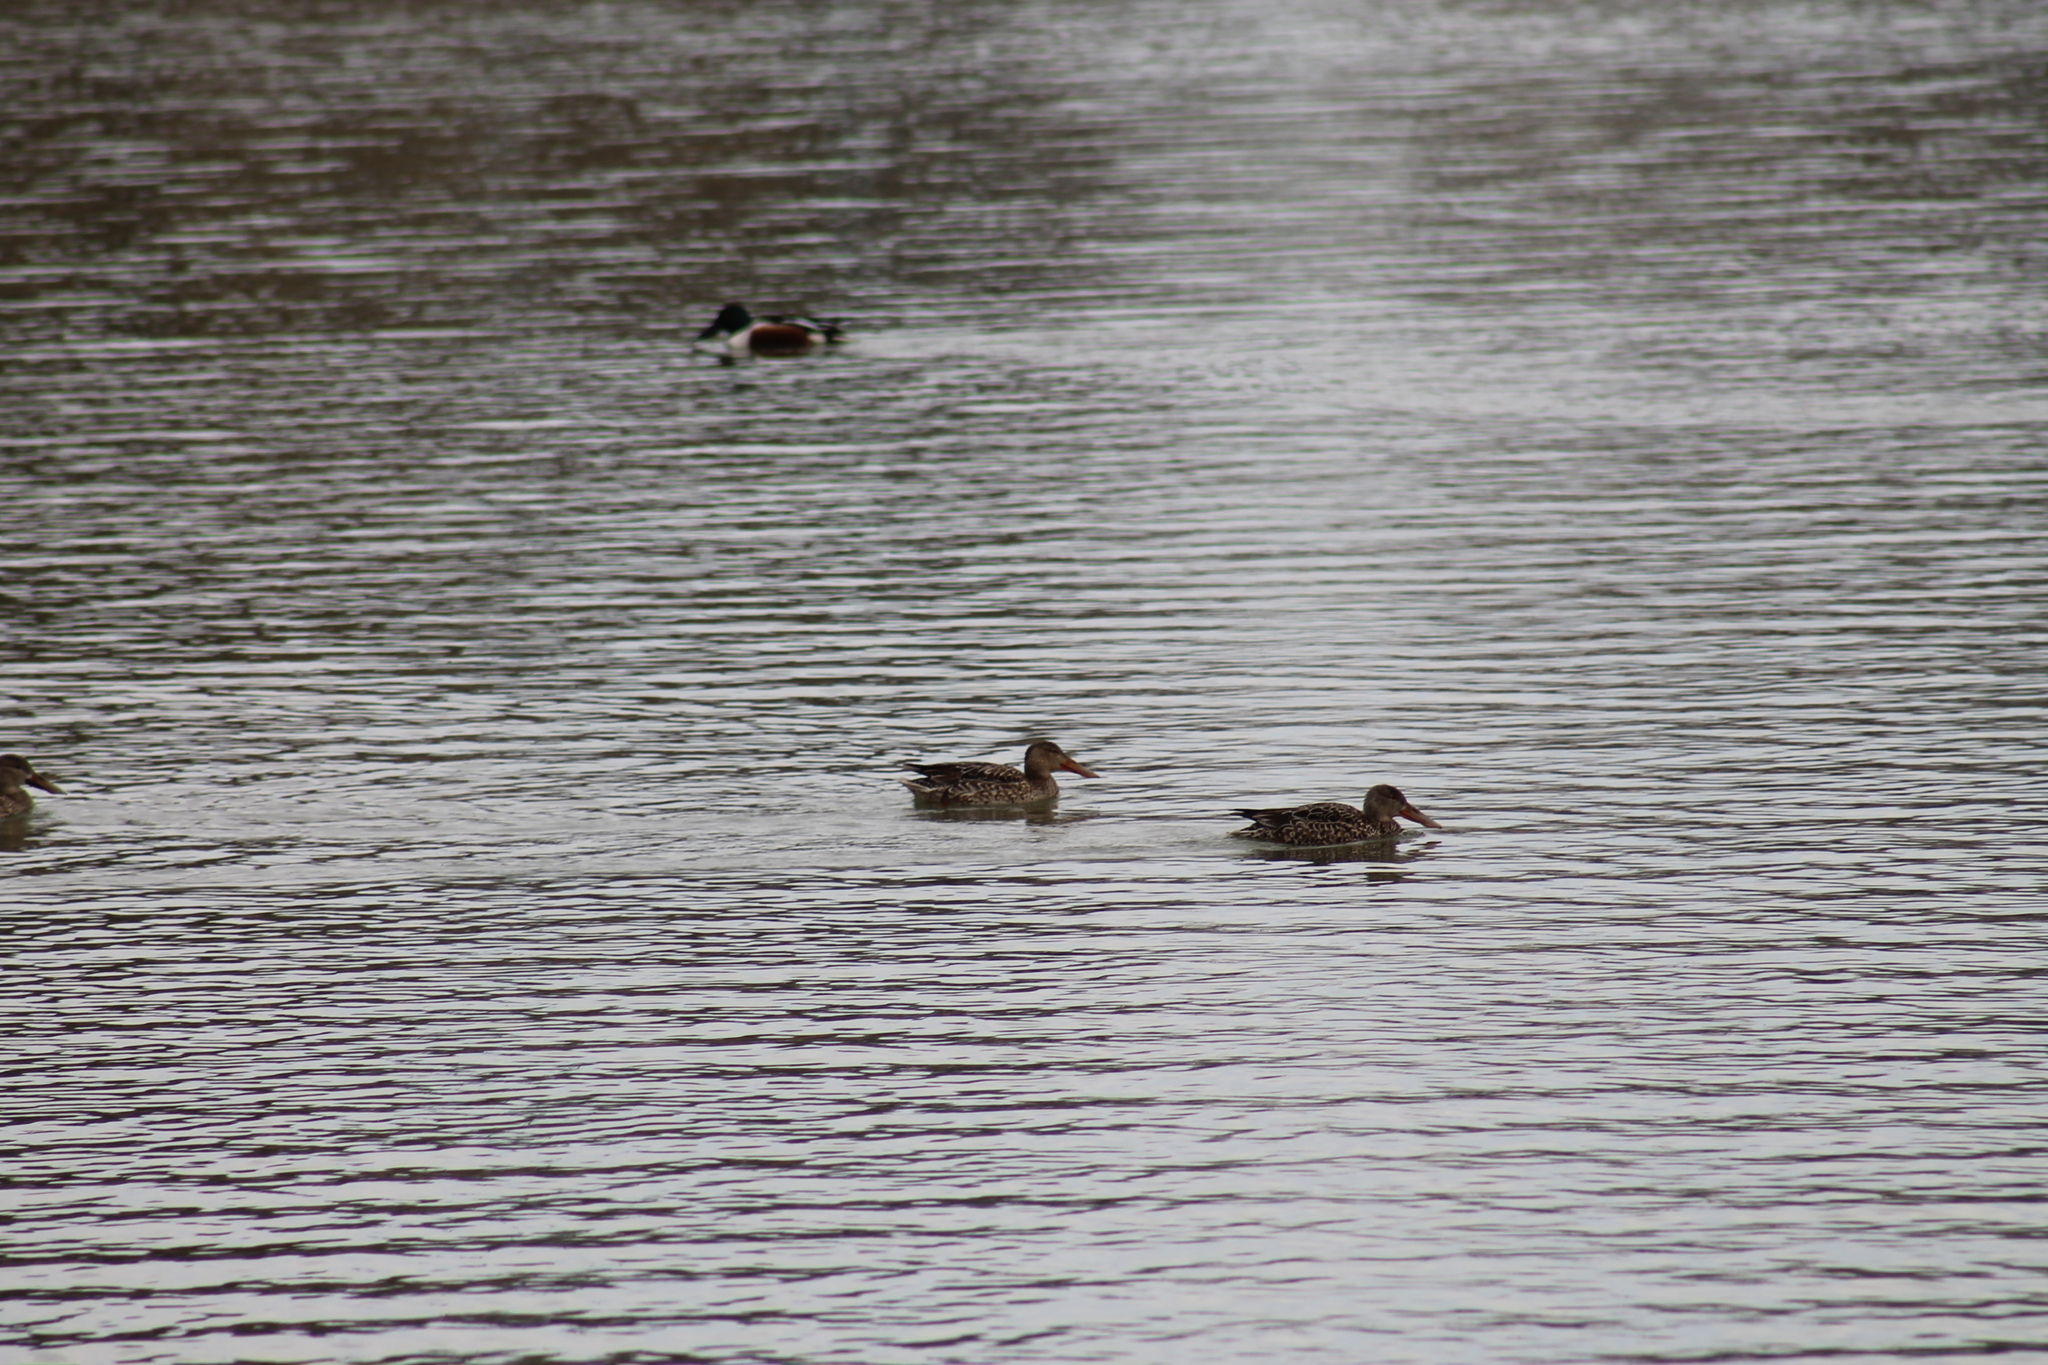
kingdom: Animalia
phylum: Chordata
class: Aves
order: Anseriformes
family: Anatidae
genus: Spatula
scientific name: Spatula clypeata
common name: Northern shoveler
